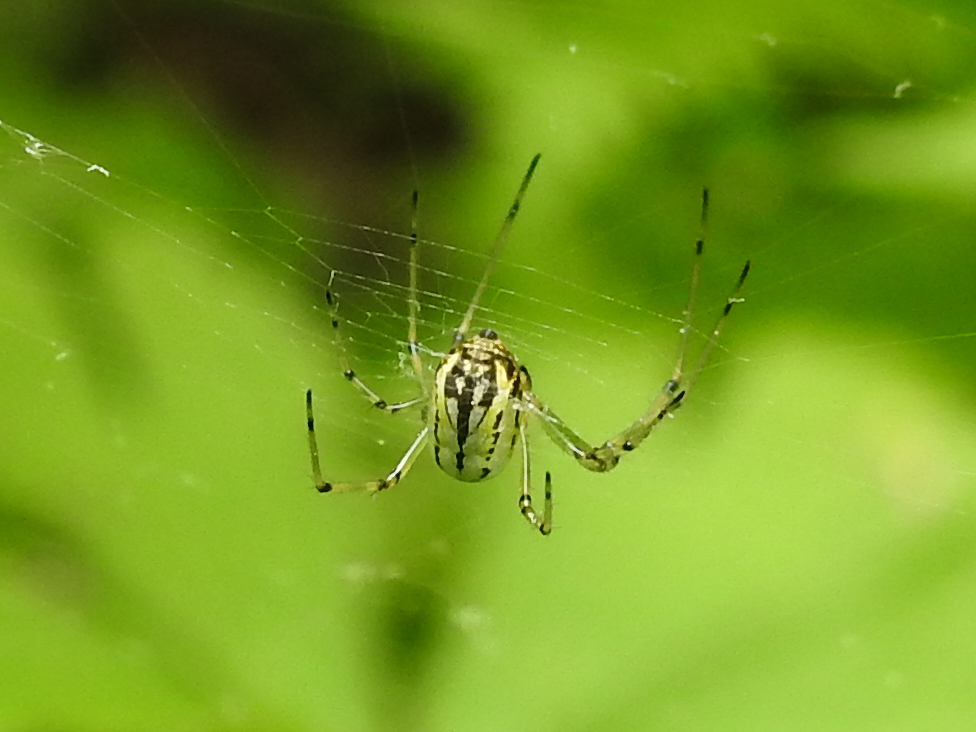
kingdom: Animalia
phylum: Arthropoda
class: Arachnida
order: Araneae
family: Tetragnathidae
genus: Leucauge
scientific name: Leucauge venusta
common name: Longjawed orb weavers
